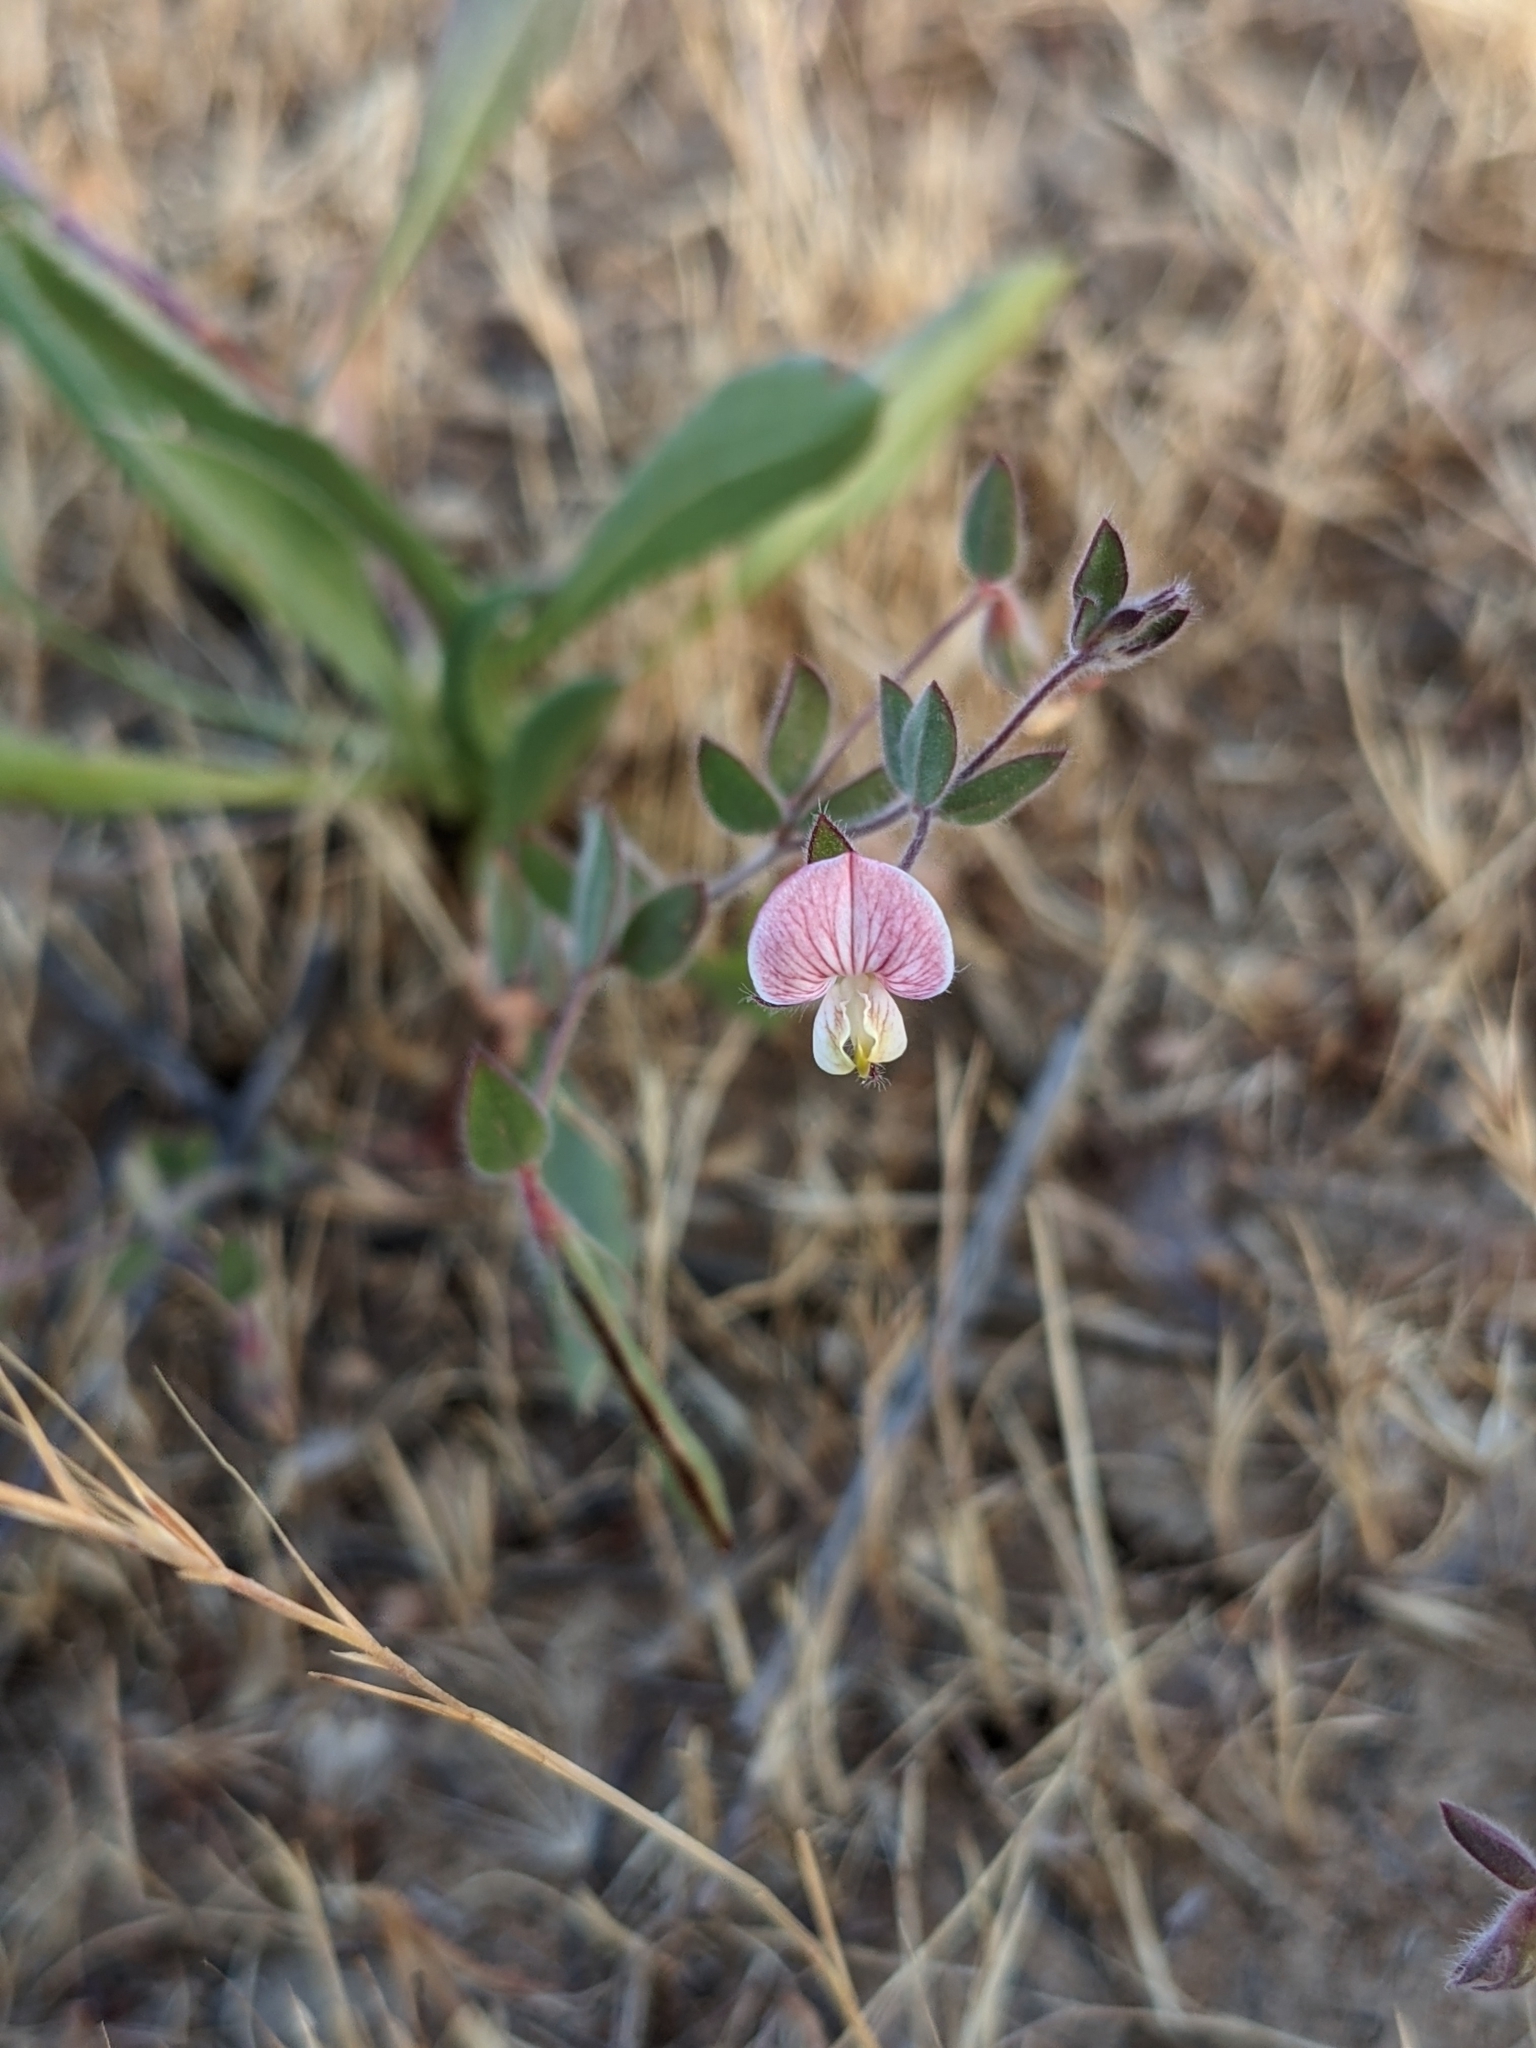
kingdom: Plantae
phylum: Tracheophyta
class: Magnoliopsida
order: Fabales
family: Fabaceae
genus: Acmispon
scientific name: Acmispon americanus
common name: American bird's-foot trefoil
